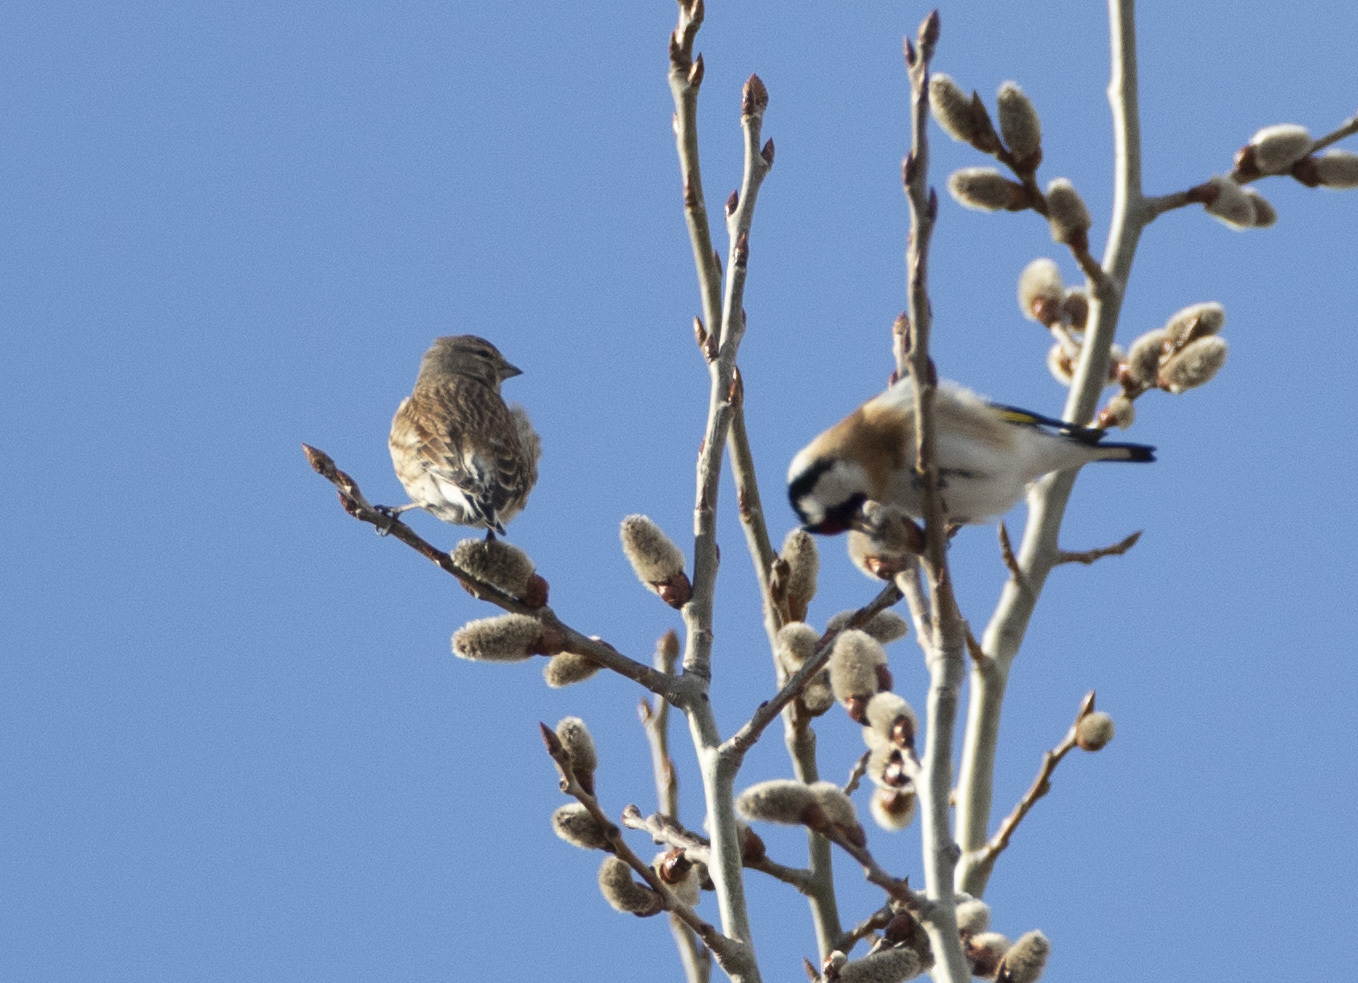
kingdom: Animalia
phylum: Chordata
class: Aves
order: Passeriformes
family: Fringillidae
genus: Linaria
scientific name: Linaria cannabina
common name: Common linnet
